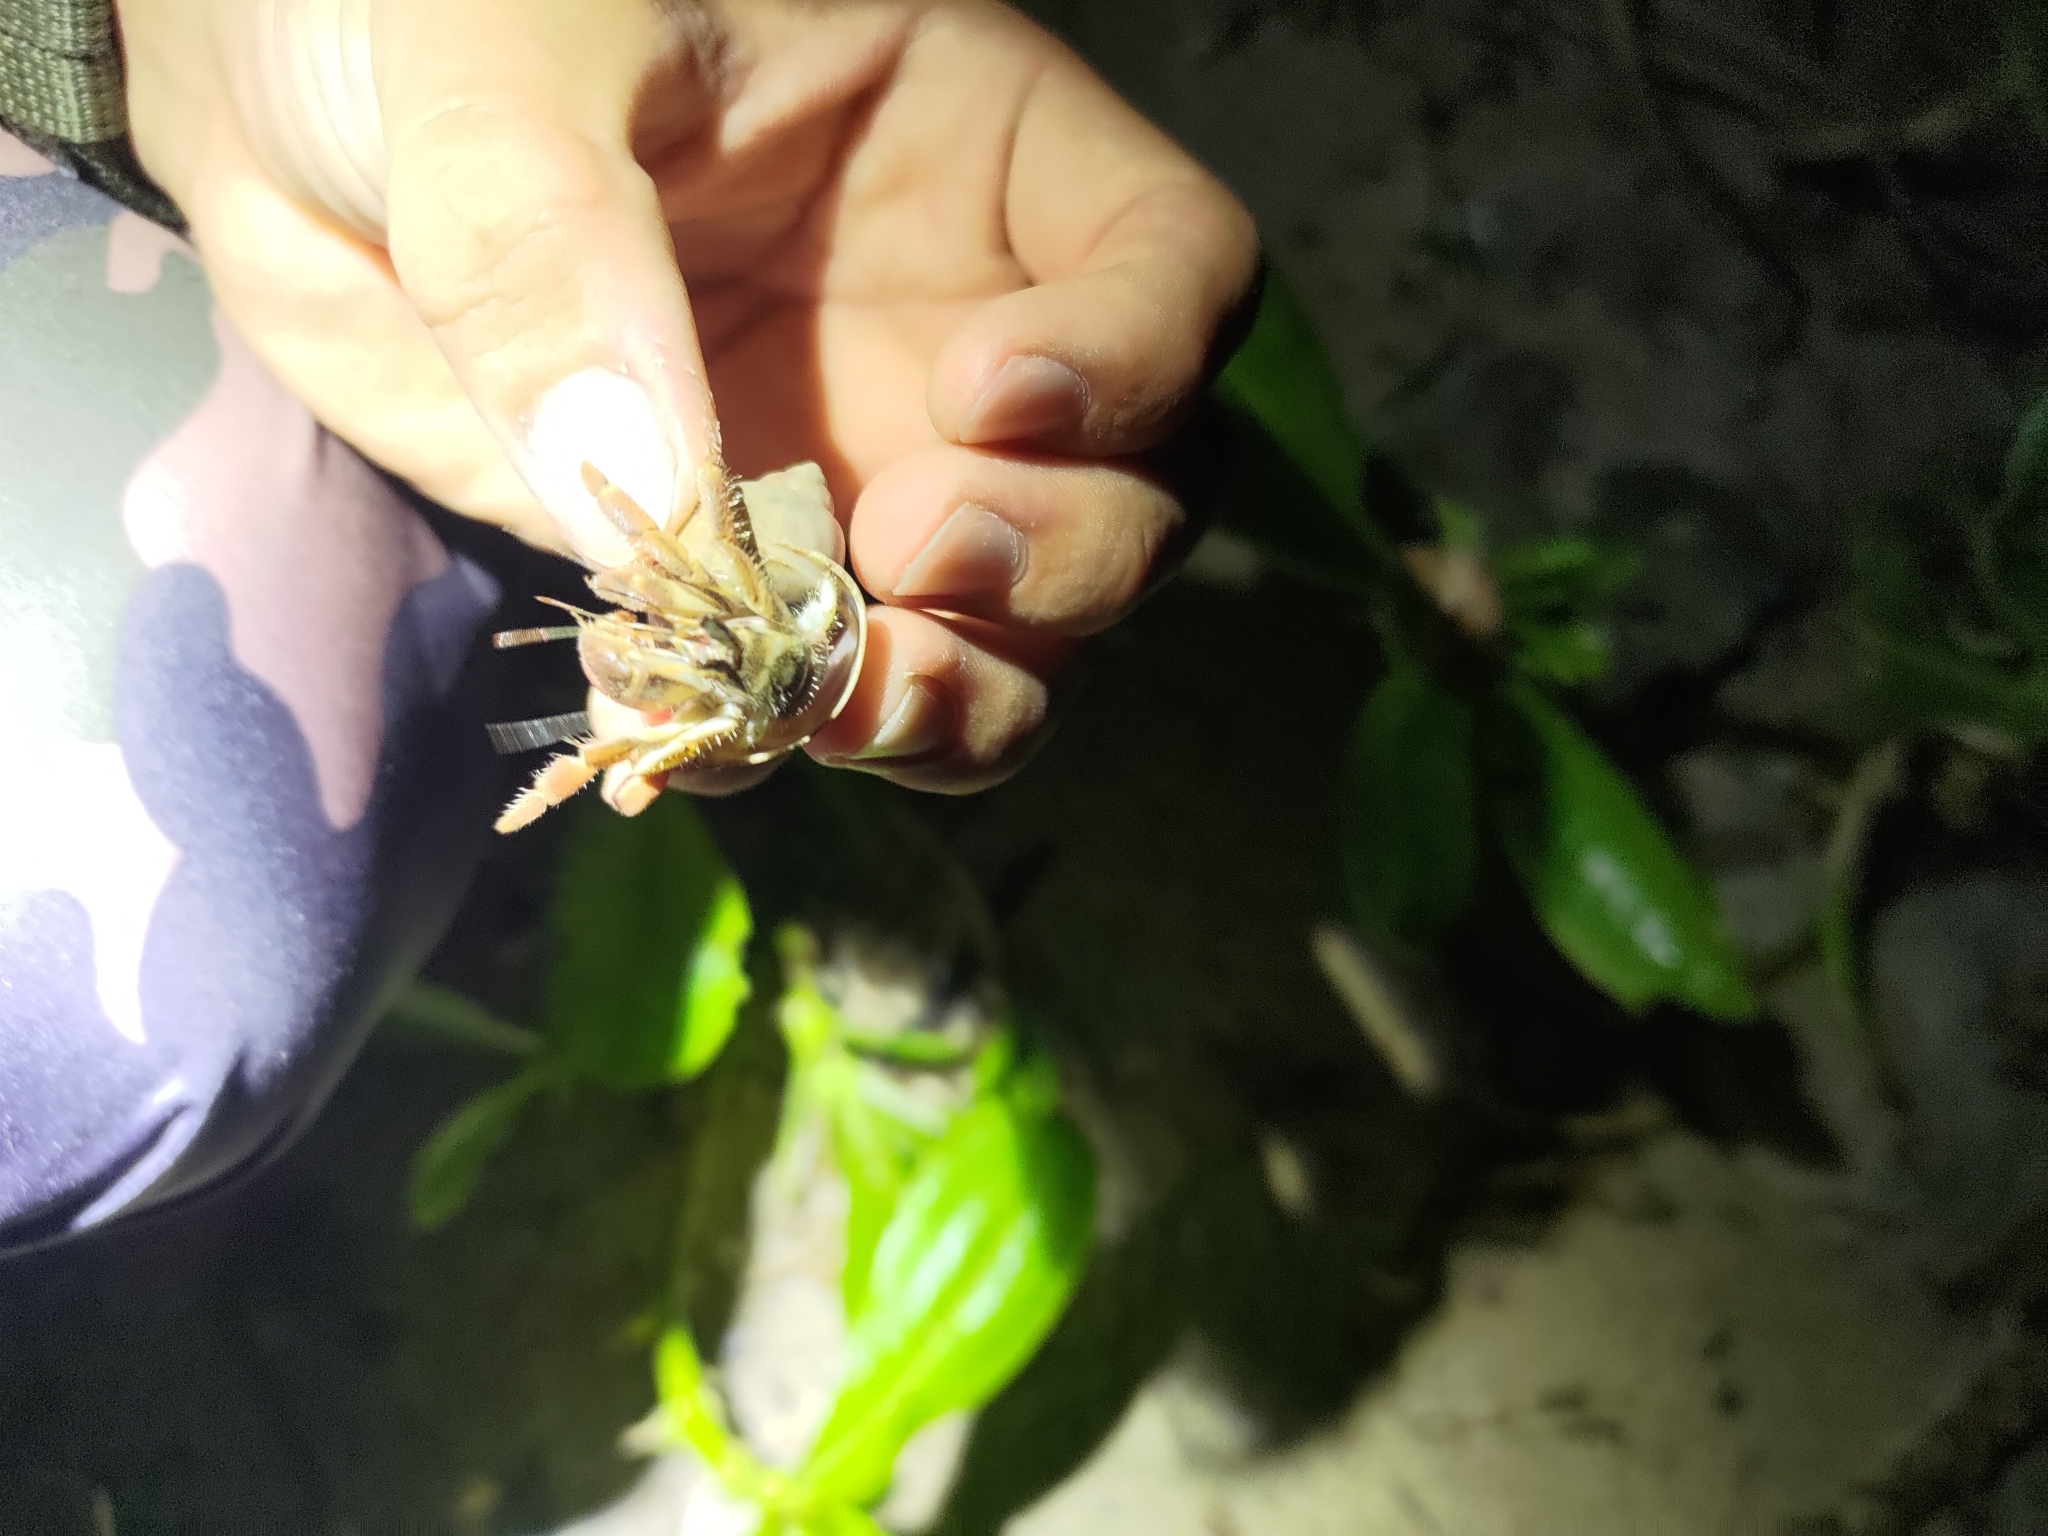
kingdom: Animalia
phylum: Arthropoda
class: Malacostraca
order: Decapoda
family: Coenobitidae
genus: Coenobita
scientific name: Coenobita rugosus
